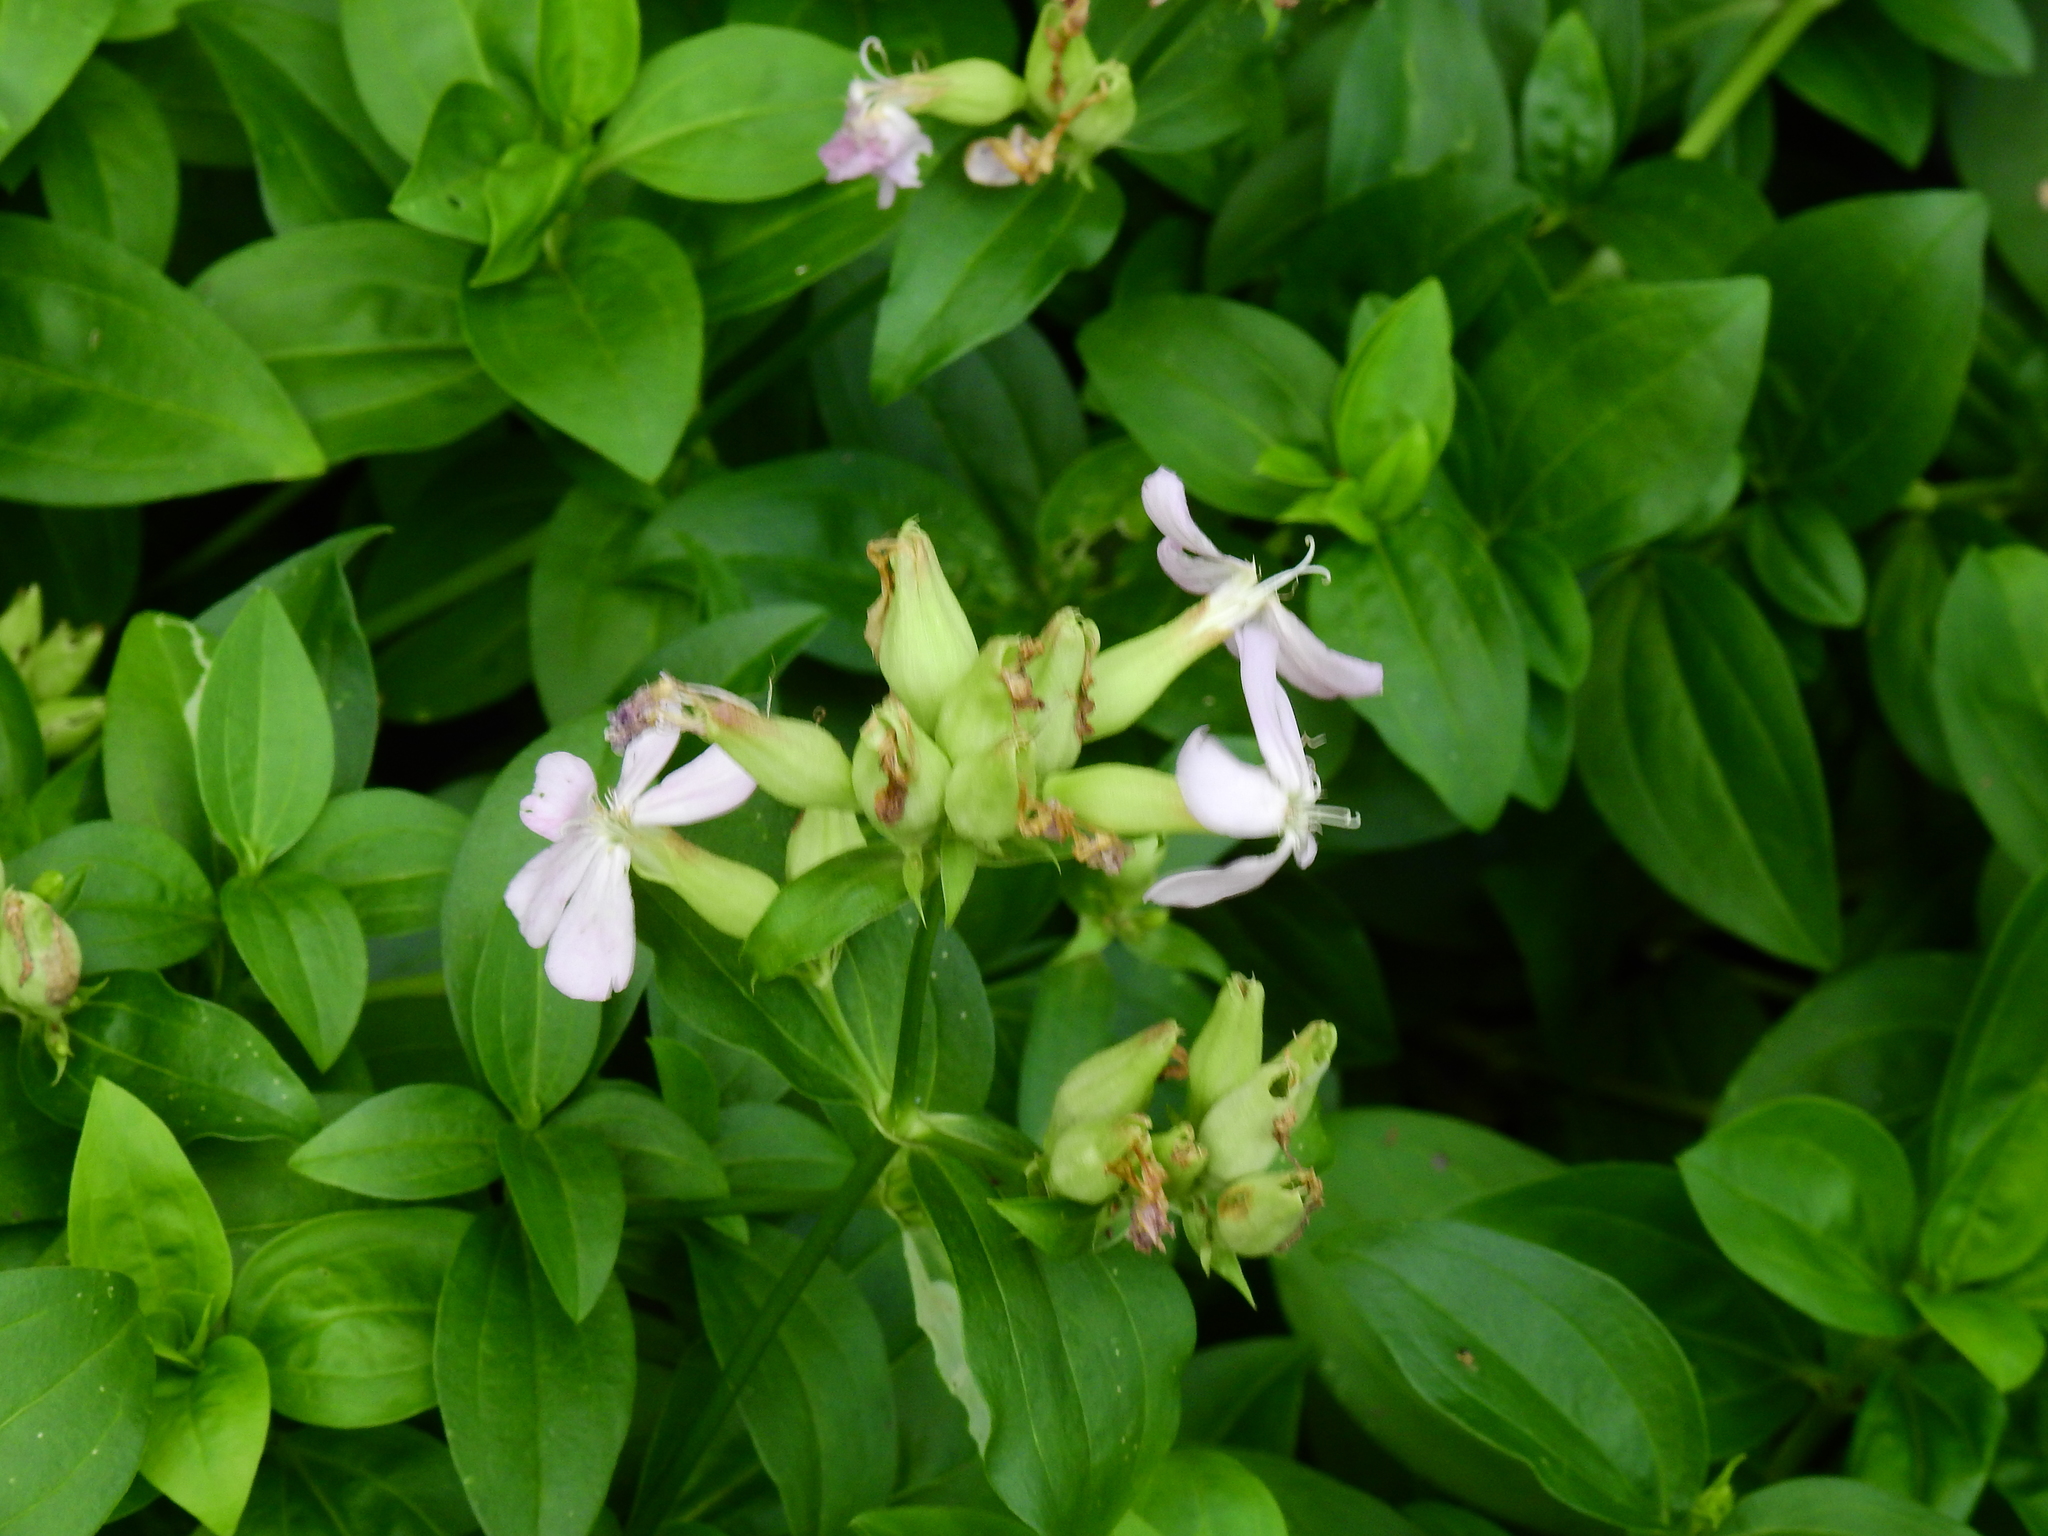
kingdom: Plantae
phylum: Tracheophyta
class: Magnoliopsida
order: Caryophyllales
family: Caryophyllaceae
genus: Saponaria
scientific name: Saponaria officinalis
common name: Soapwort
